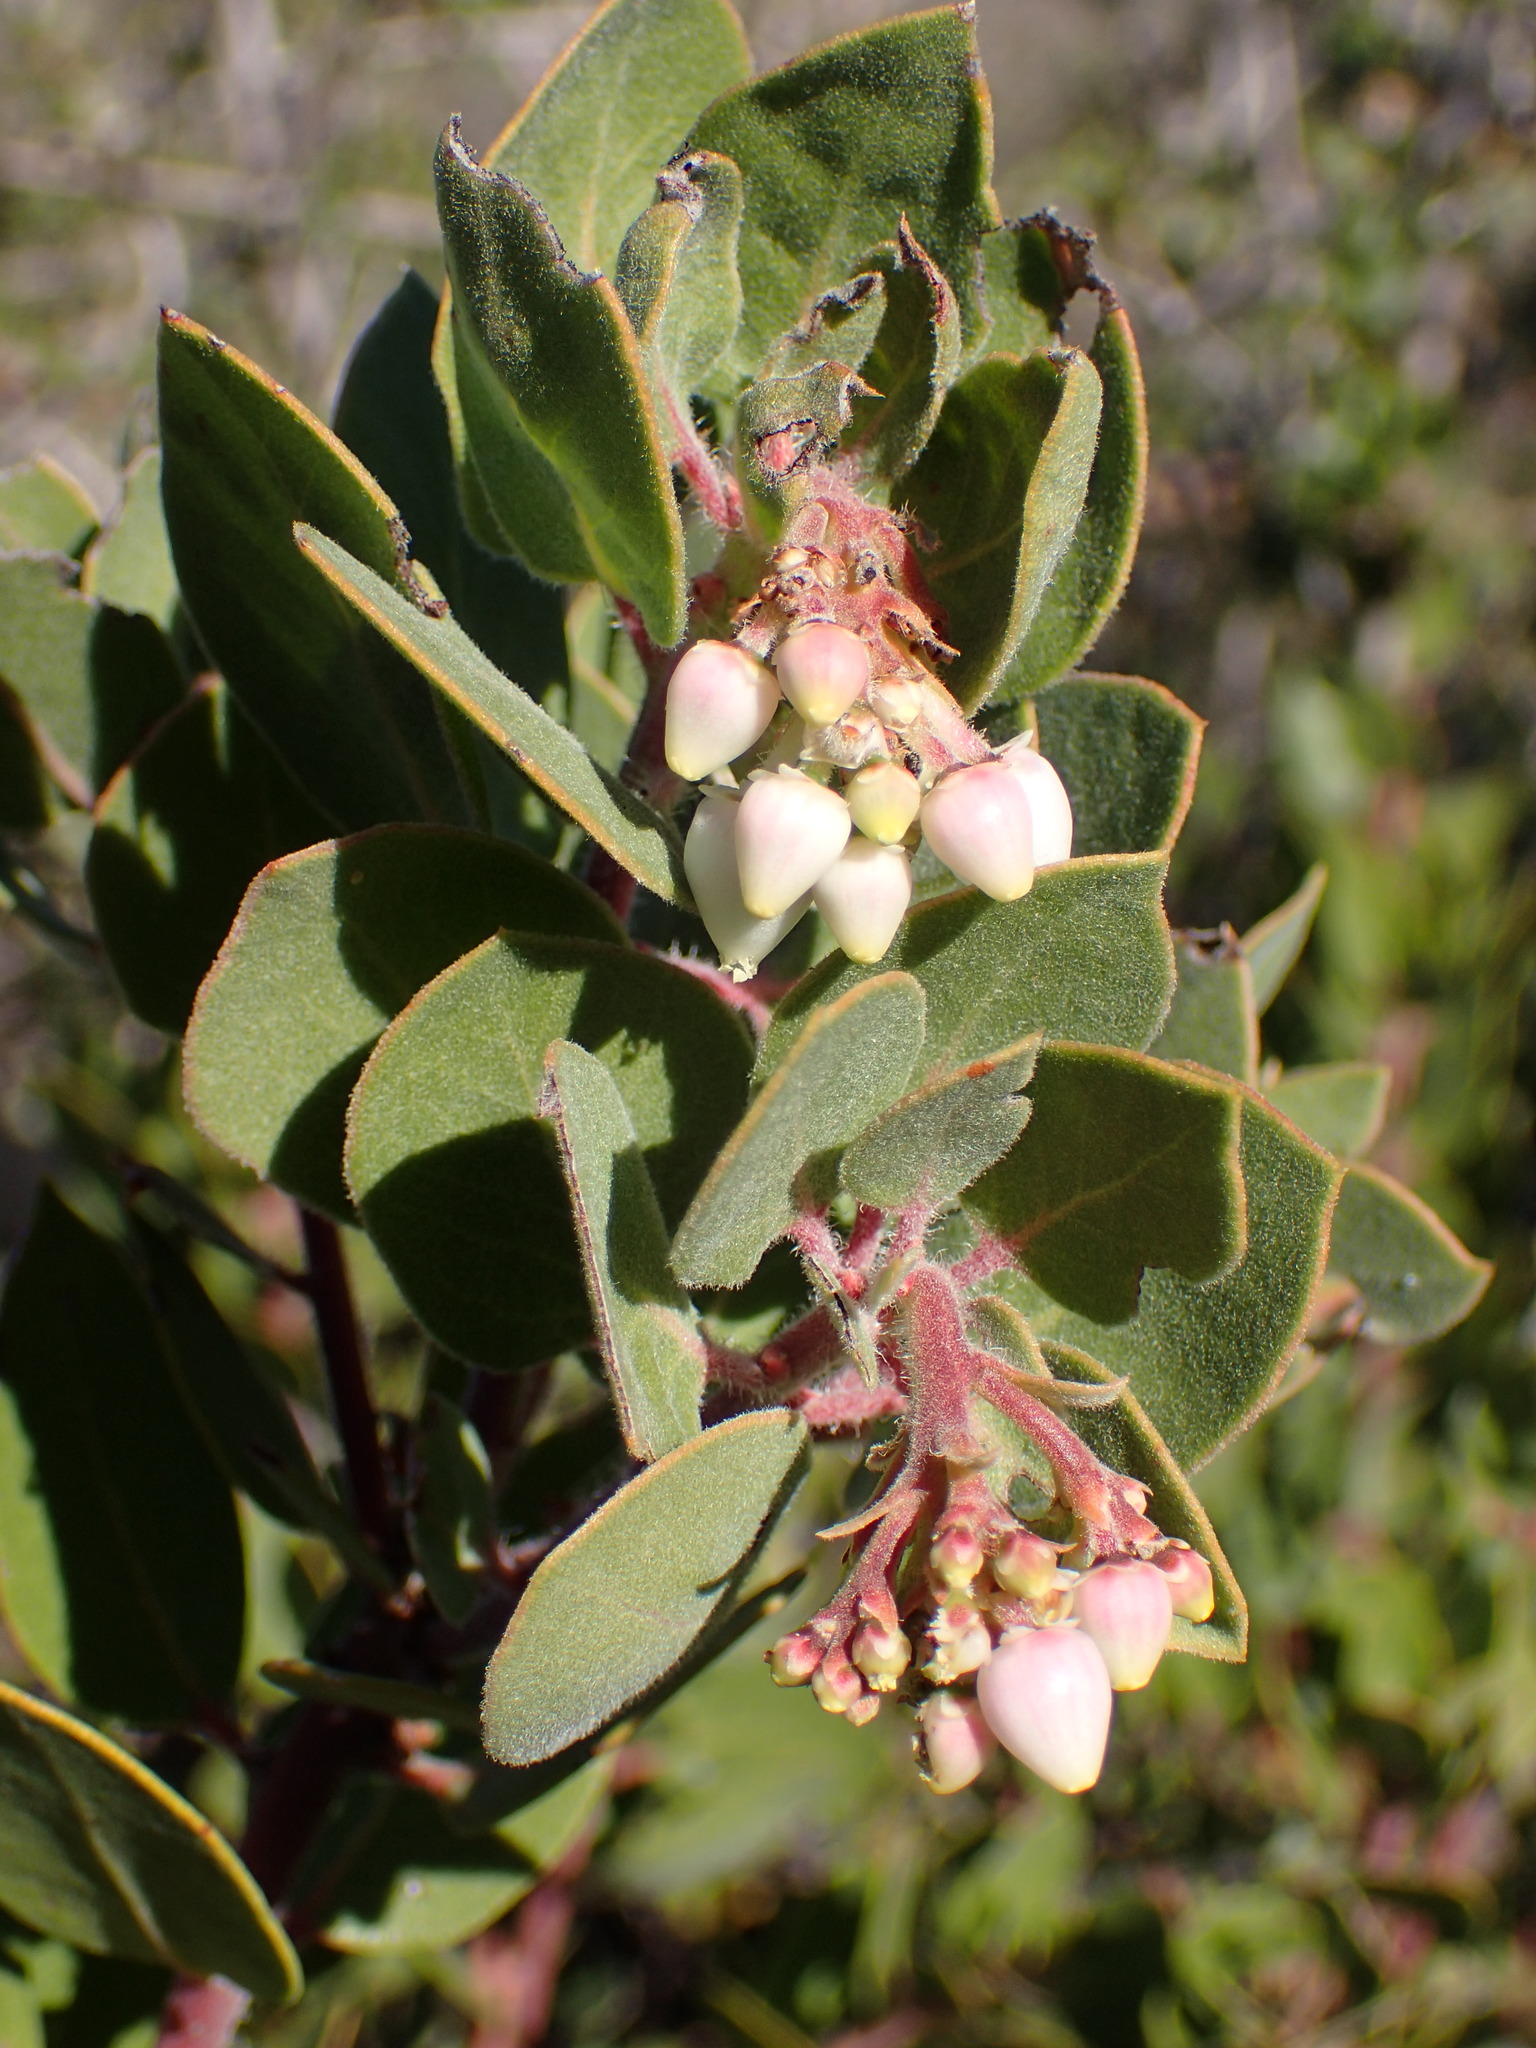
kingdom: Plantae
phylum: Tracheophyta
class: Magnoliopsida
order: Ericales
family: Ericaceae
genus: Arctostaphylos
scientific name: Arctostaphylos glandulosa
